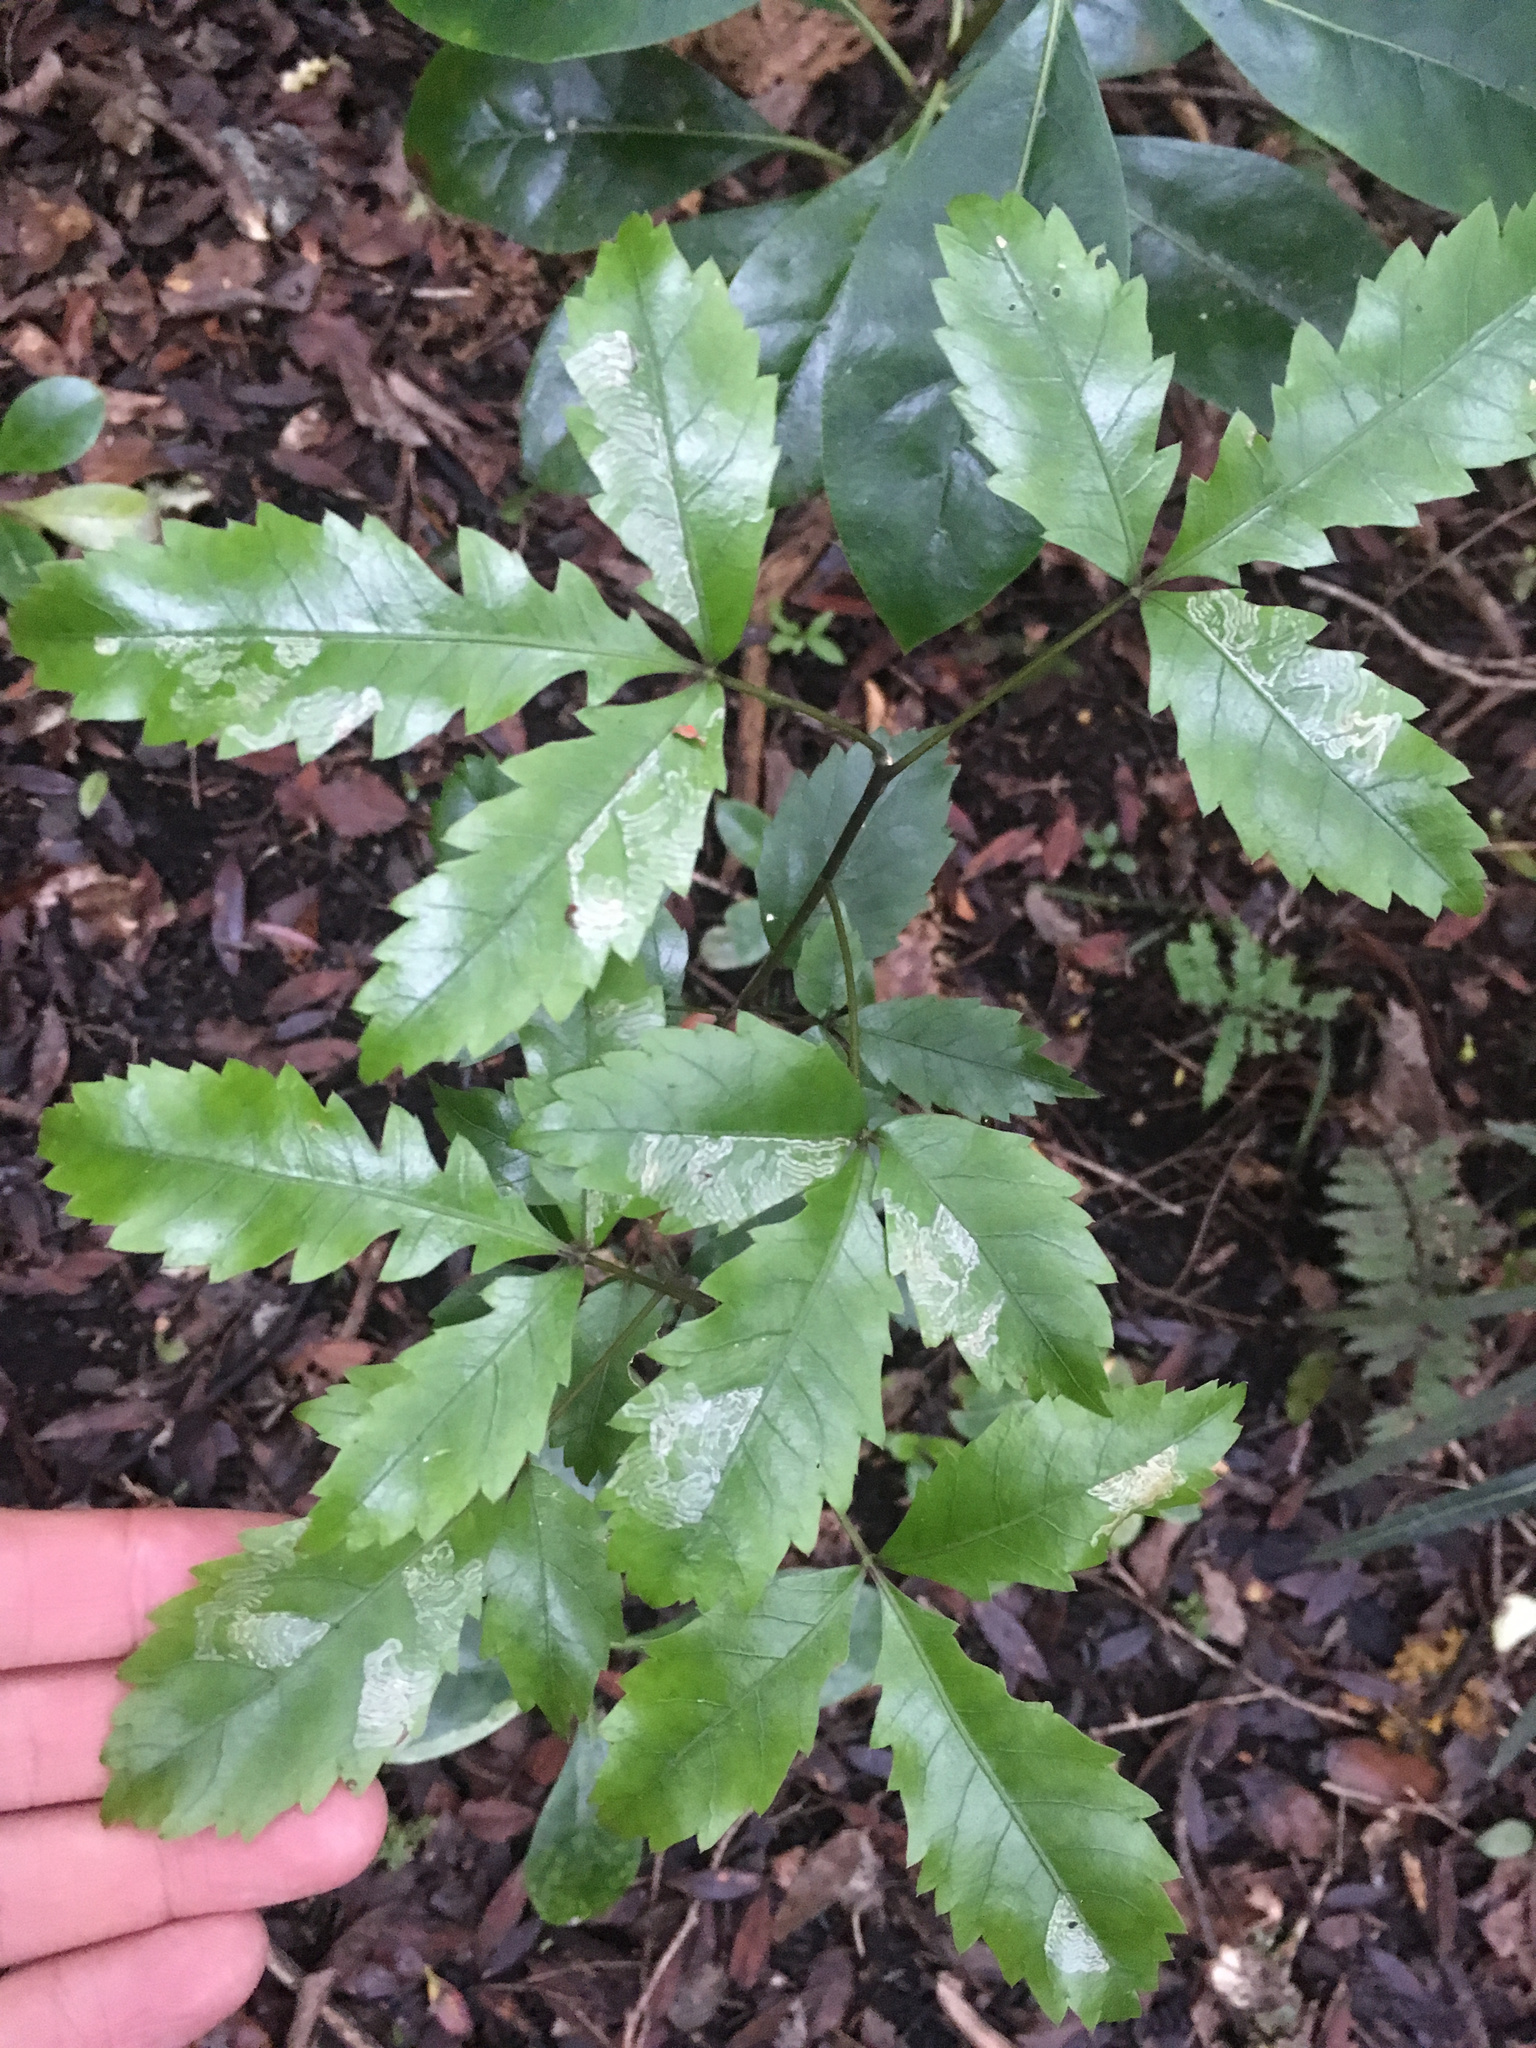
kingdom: Plantae
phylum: Tracheophyta
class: Magnoliopsida
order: Apiales
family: Araliaceae
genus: Raukaua
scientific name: Raukaua simplex
